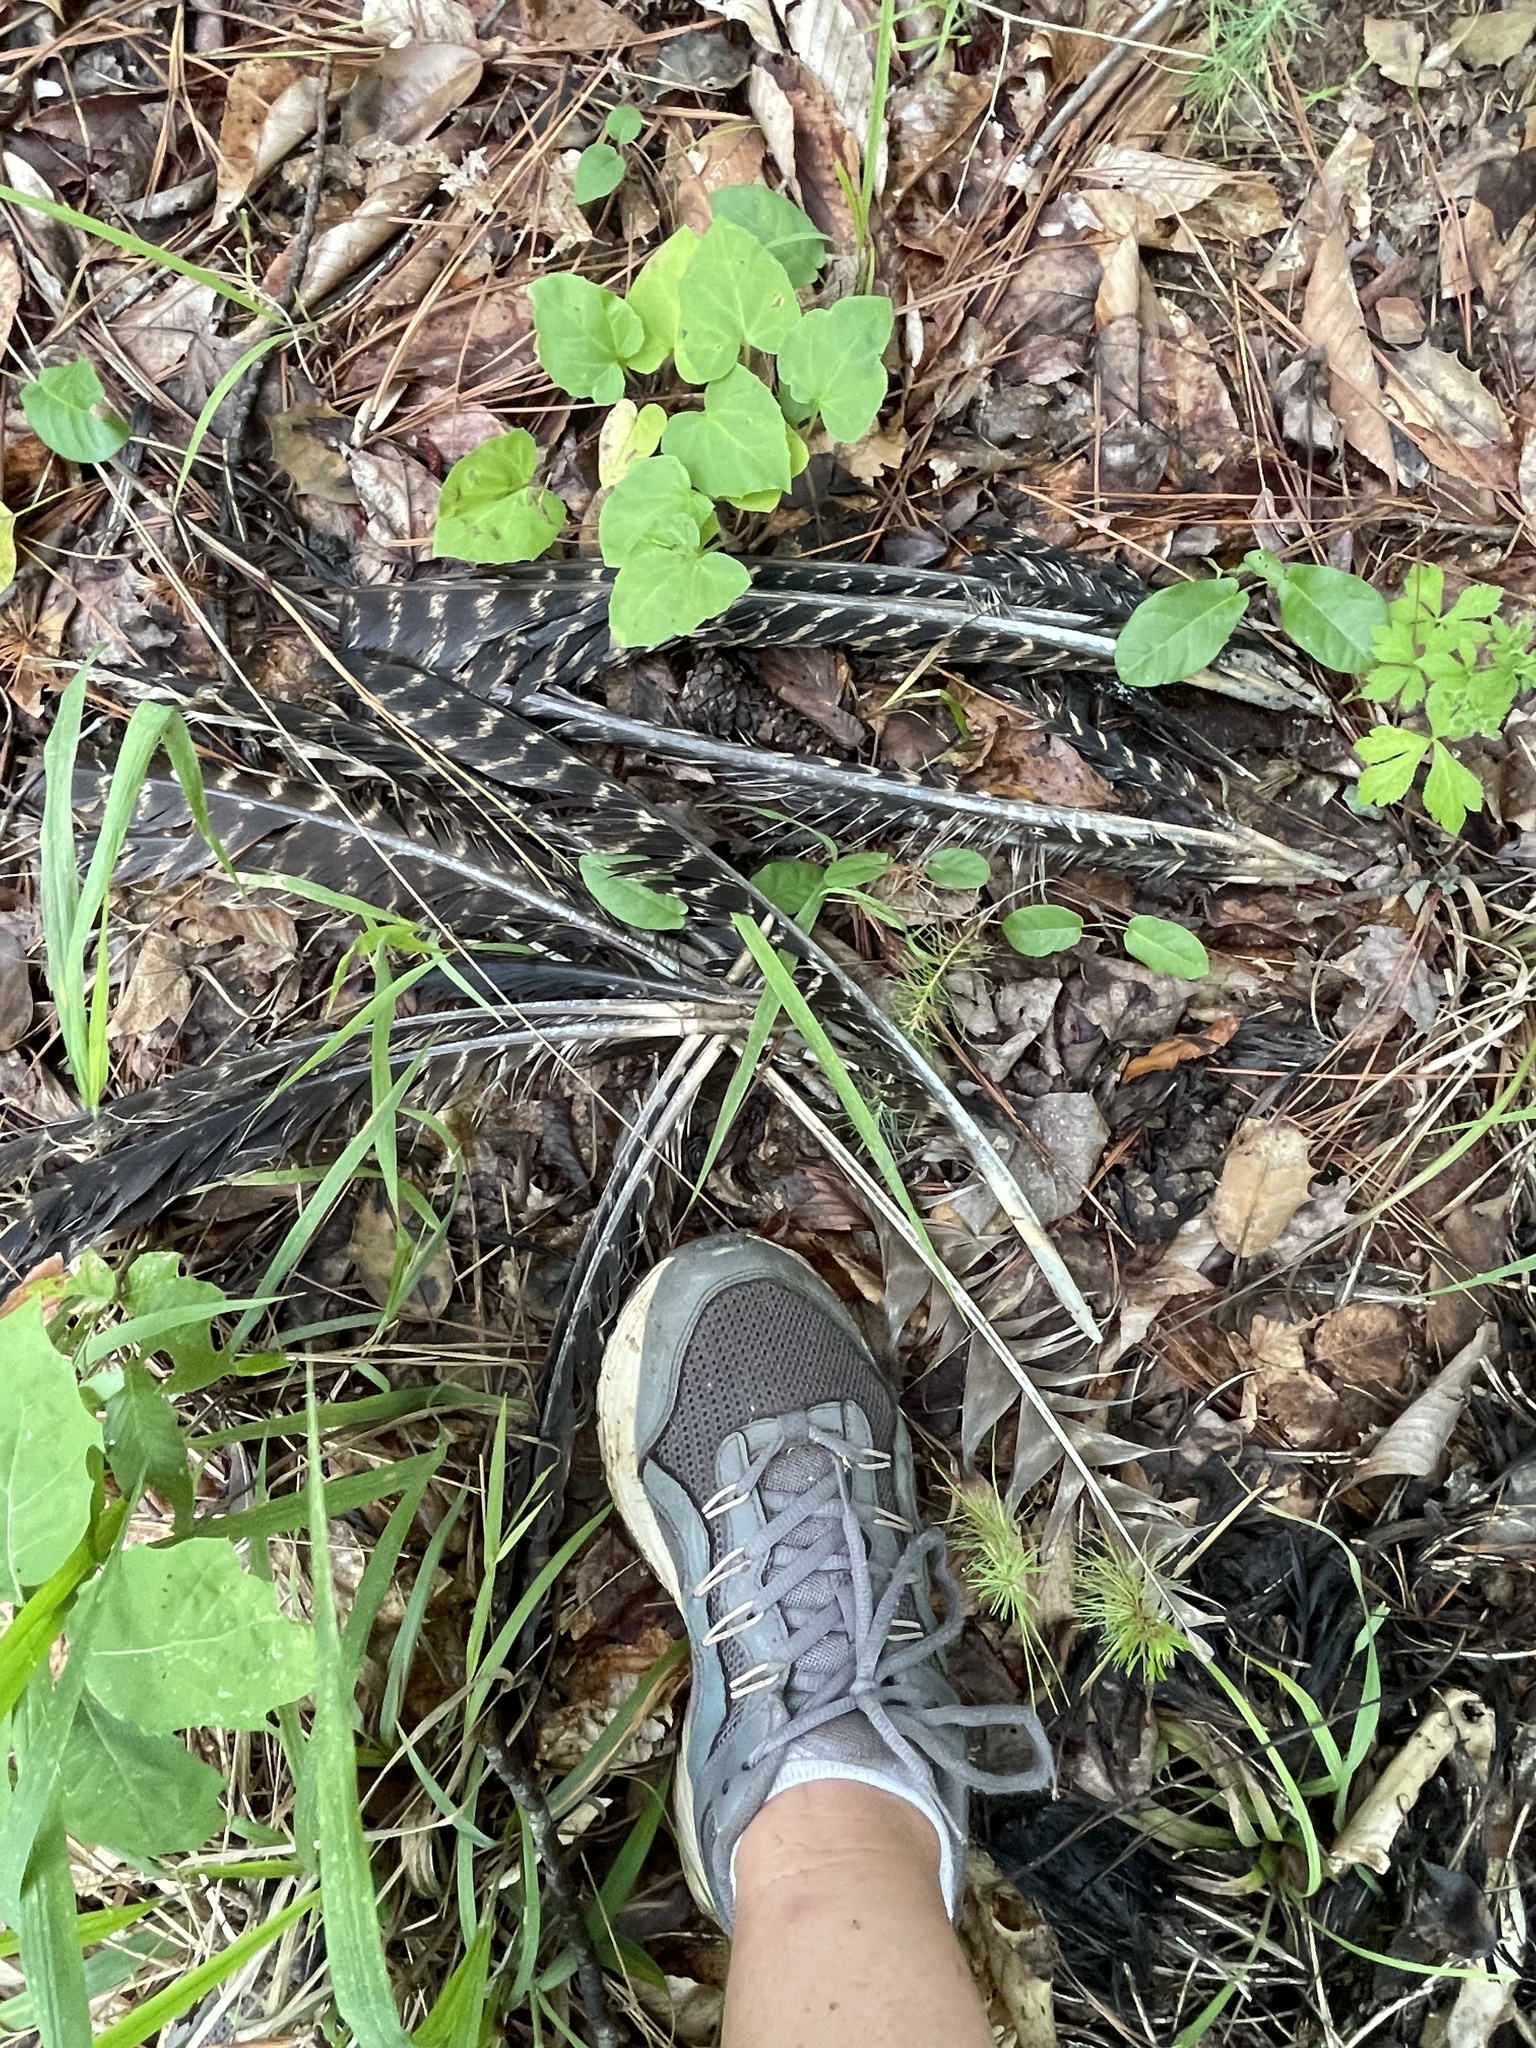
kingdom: Animalia
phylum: Chordata
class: Aves
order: Galliformes
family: Phasianidae
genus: Meleagris
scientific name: Meleagris gallopavo
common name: Wild turkey
